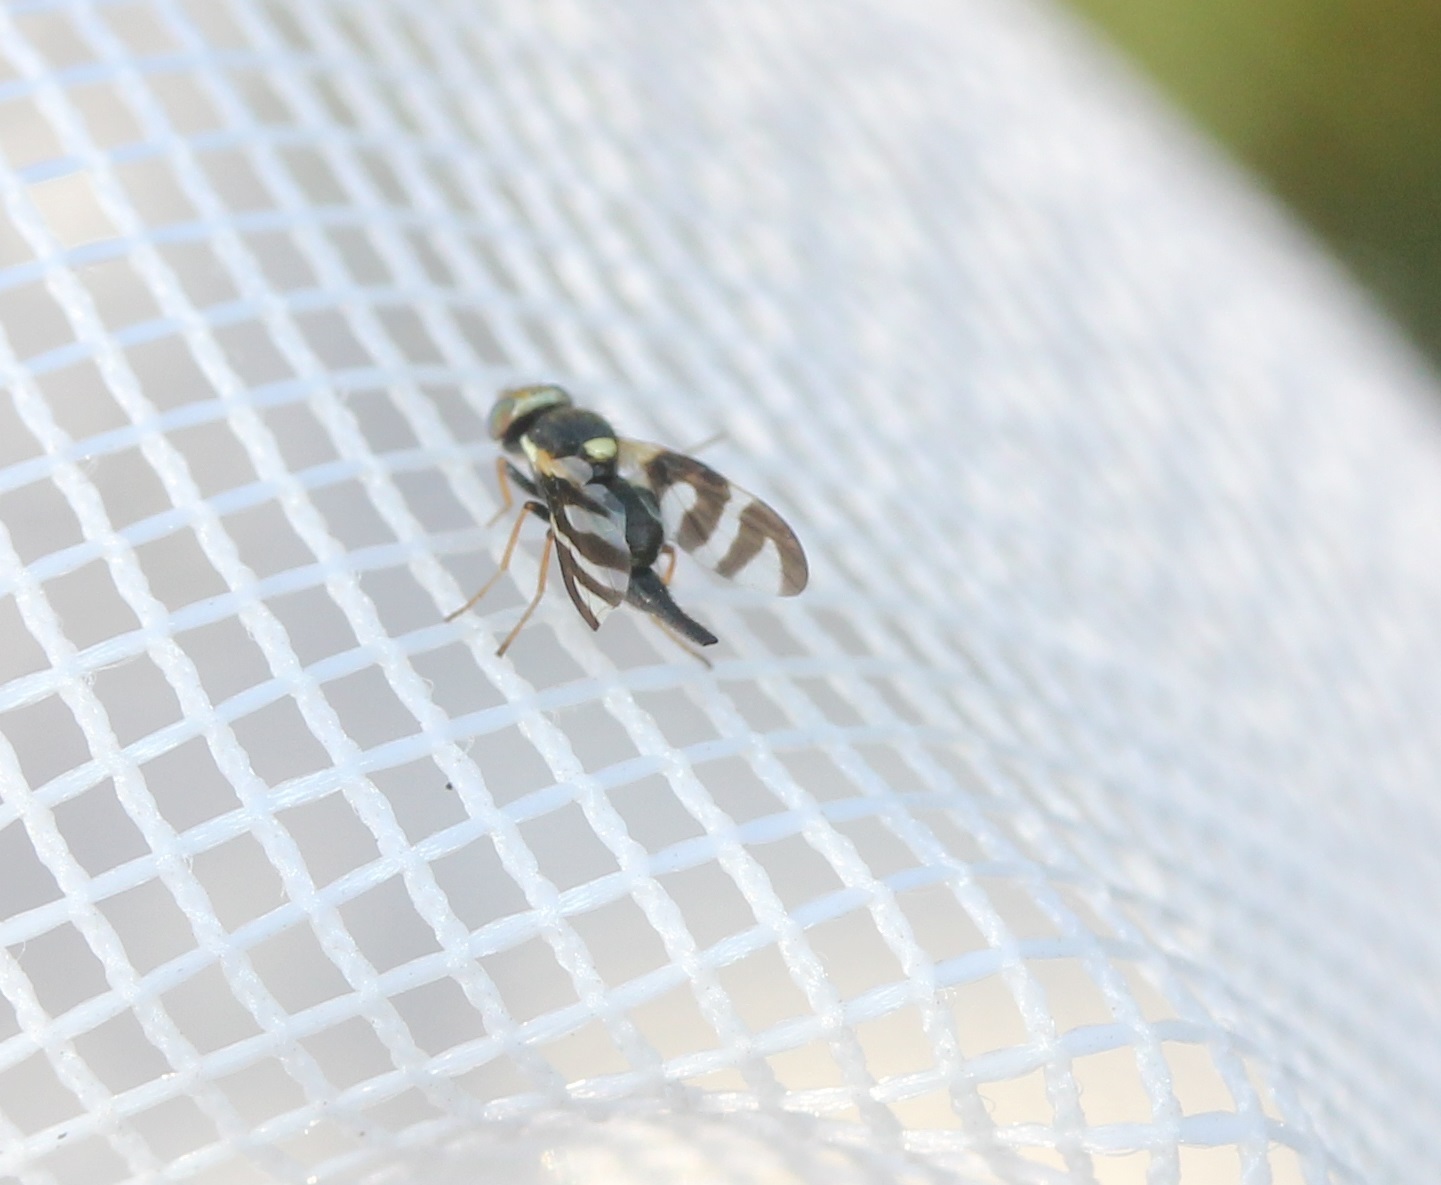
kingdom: Animalia
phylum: Arthropoda
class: Insecta
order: Diptera
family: Tephritidae
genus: Urophora
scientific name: Urophora quadrifasciata
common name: Knapweed seedhead fly
